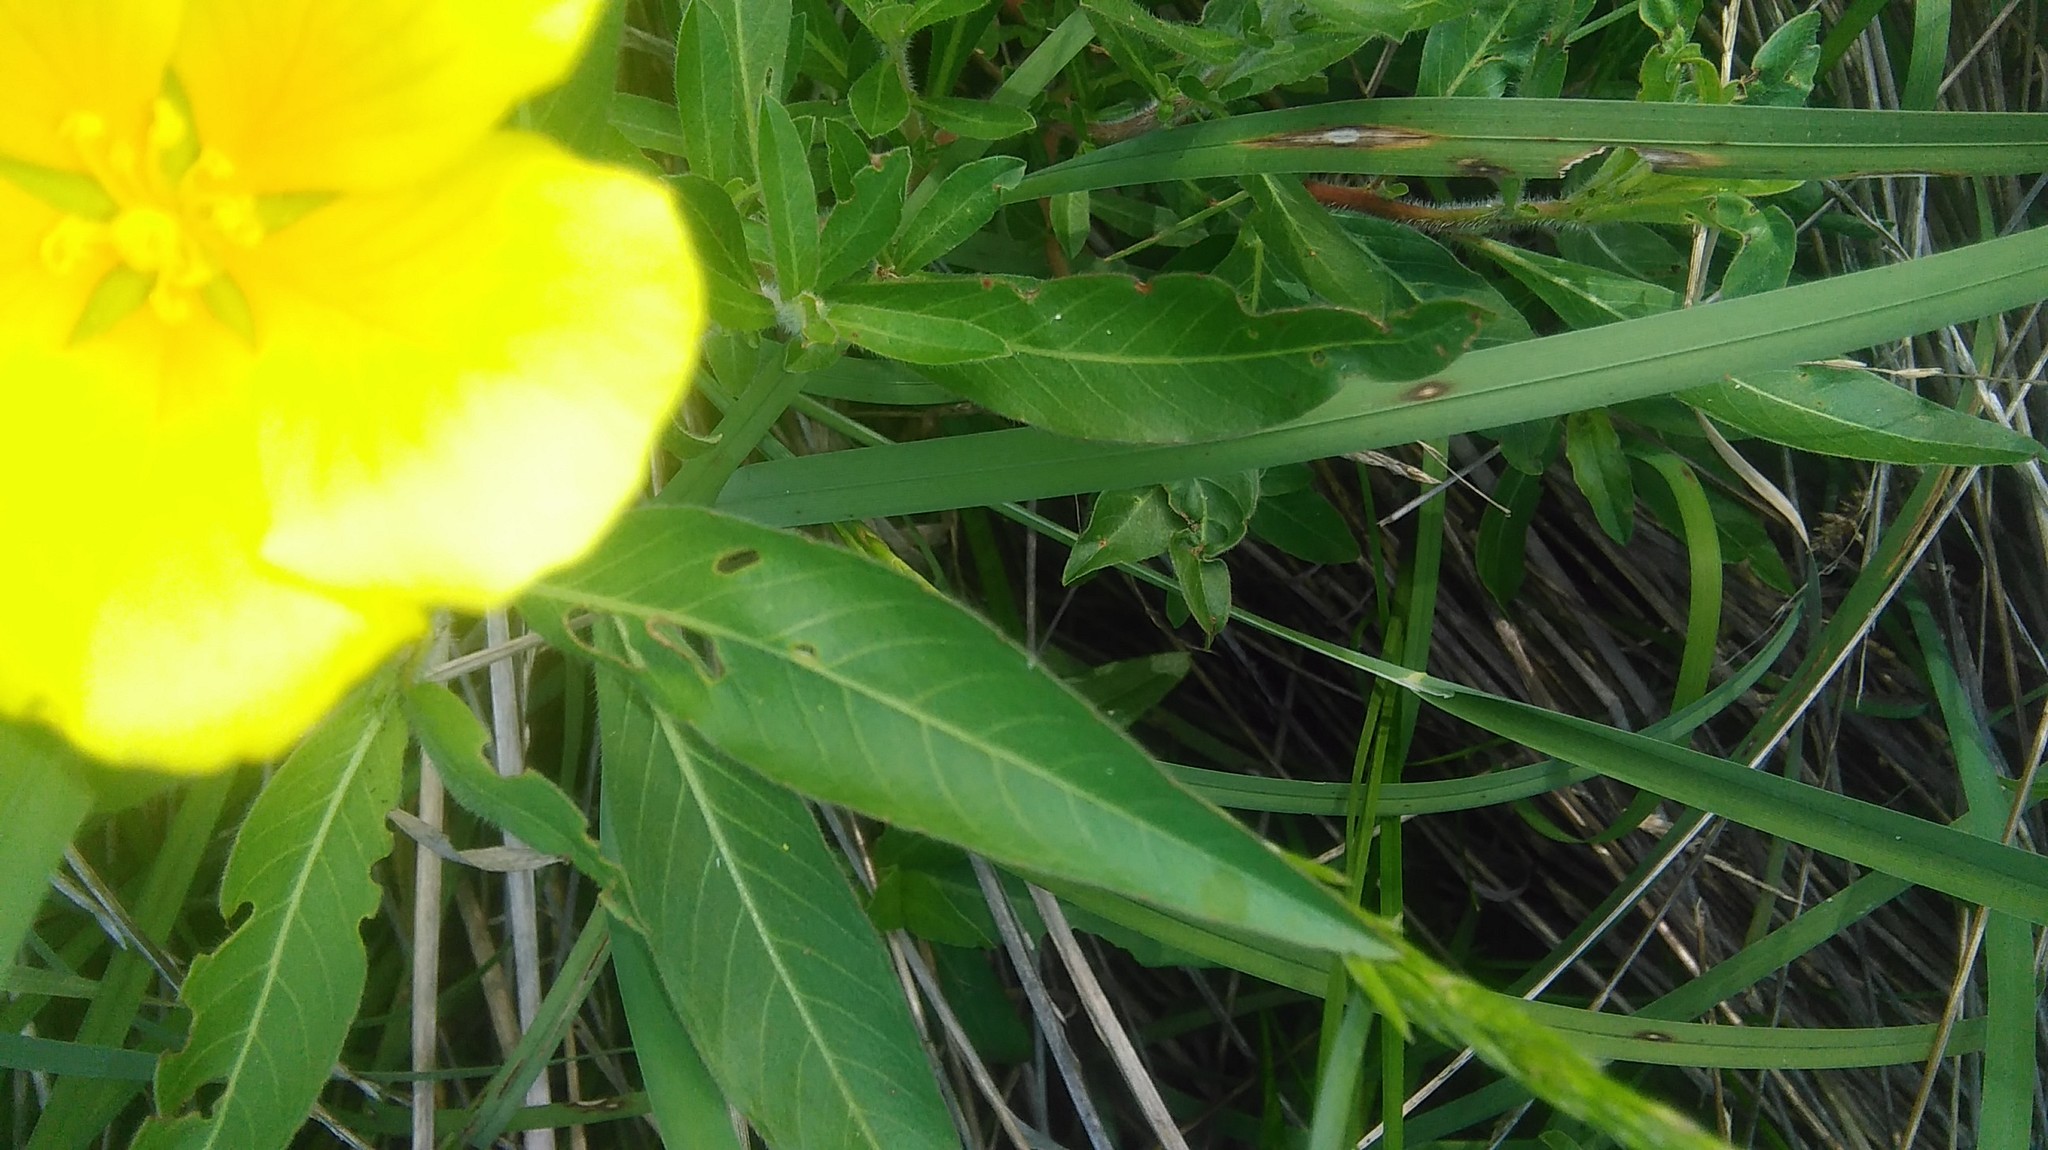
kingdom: Plantae
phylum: Tracheophyta
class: Magnoliopsida
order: Myrtales
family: Onagraceae
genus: Ludwigia
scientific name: Ludwigia peploides
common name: Floating primrose-willow
